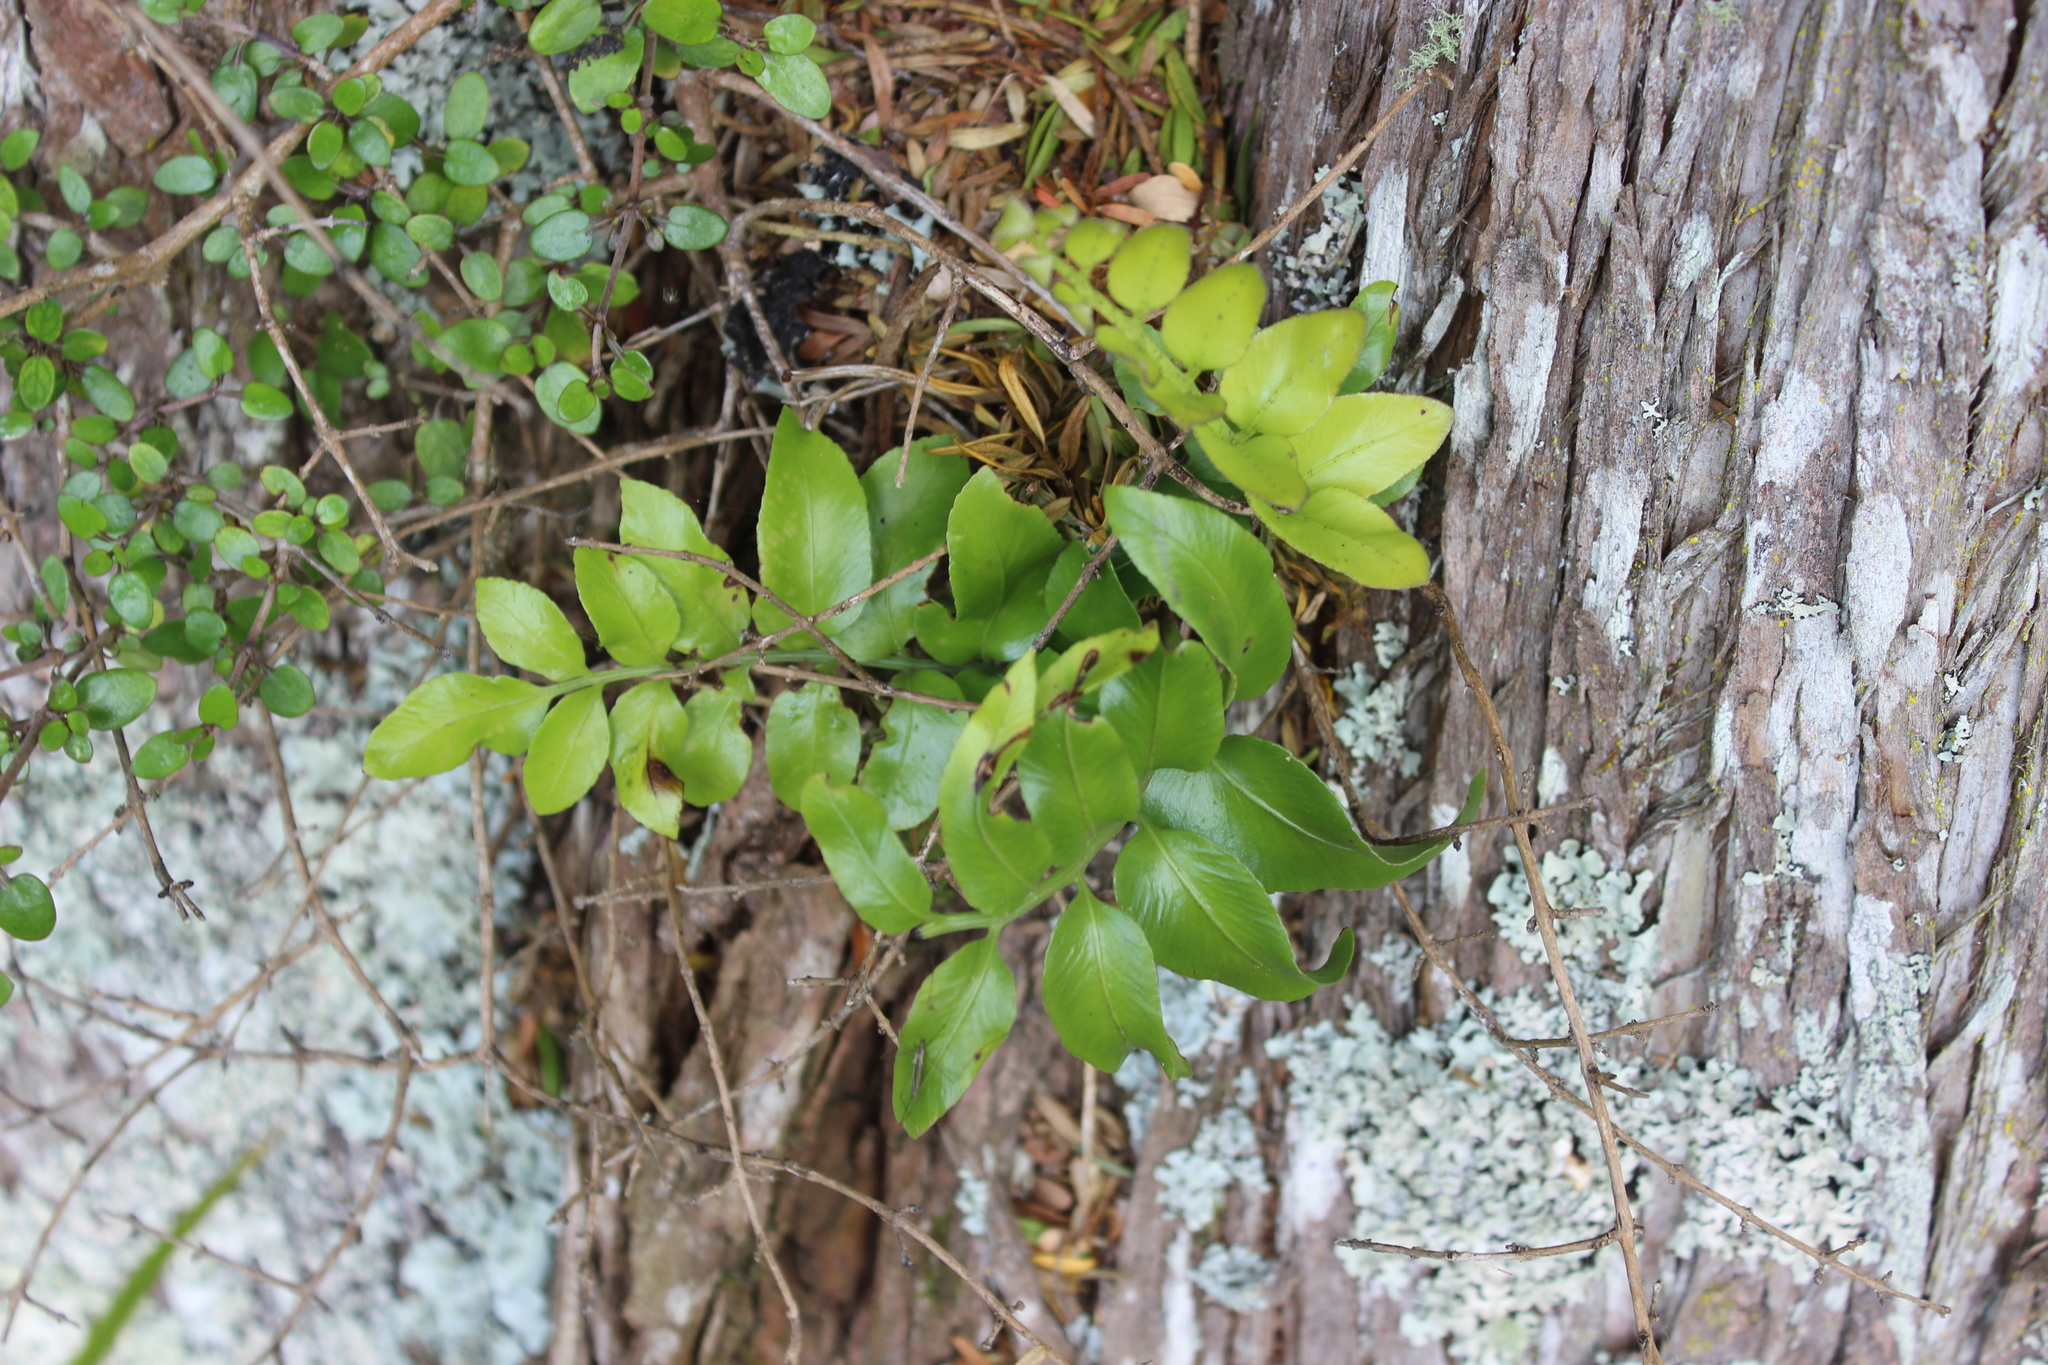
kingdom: Plantae
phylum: Tracheophyta
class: Polypodiopsida
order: Polypodiales
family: Aspleniaceae
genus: Asplenium
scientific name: Asplenium oblongifolium
